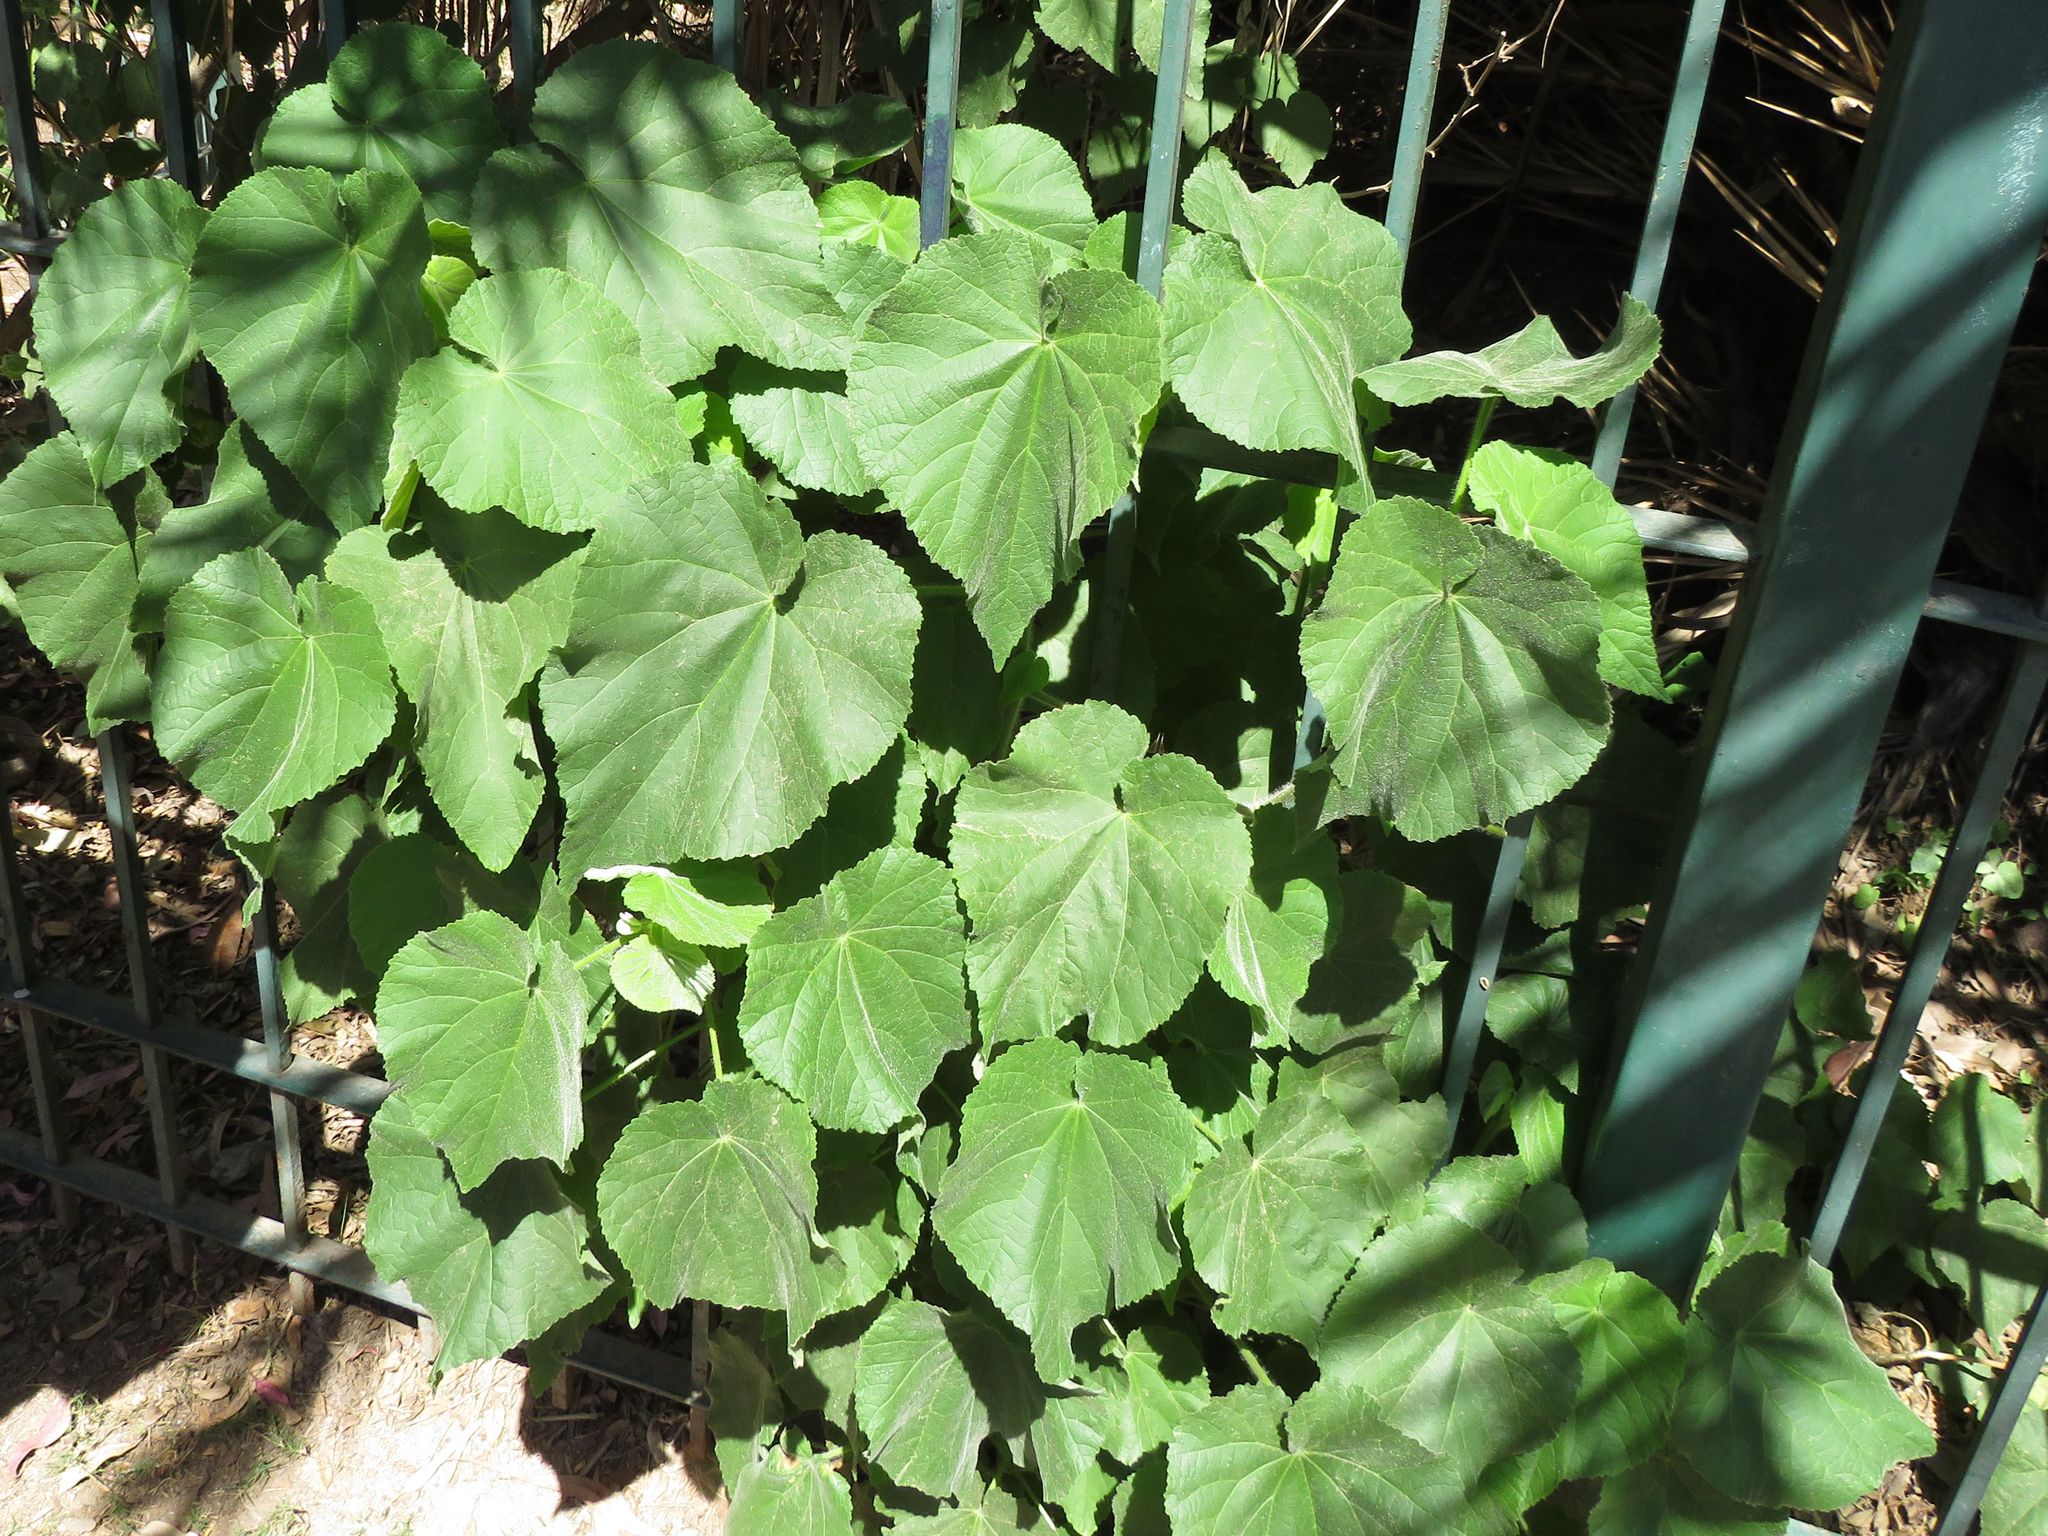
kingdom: Plantae
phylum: Tracheophyta
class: Magnoliopsida
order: Malvales
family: Malvaceae
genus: Abutilon
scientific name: Abutilon grandifolium
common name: Hairy abutilon
